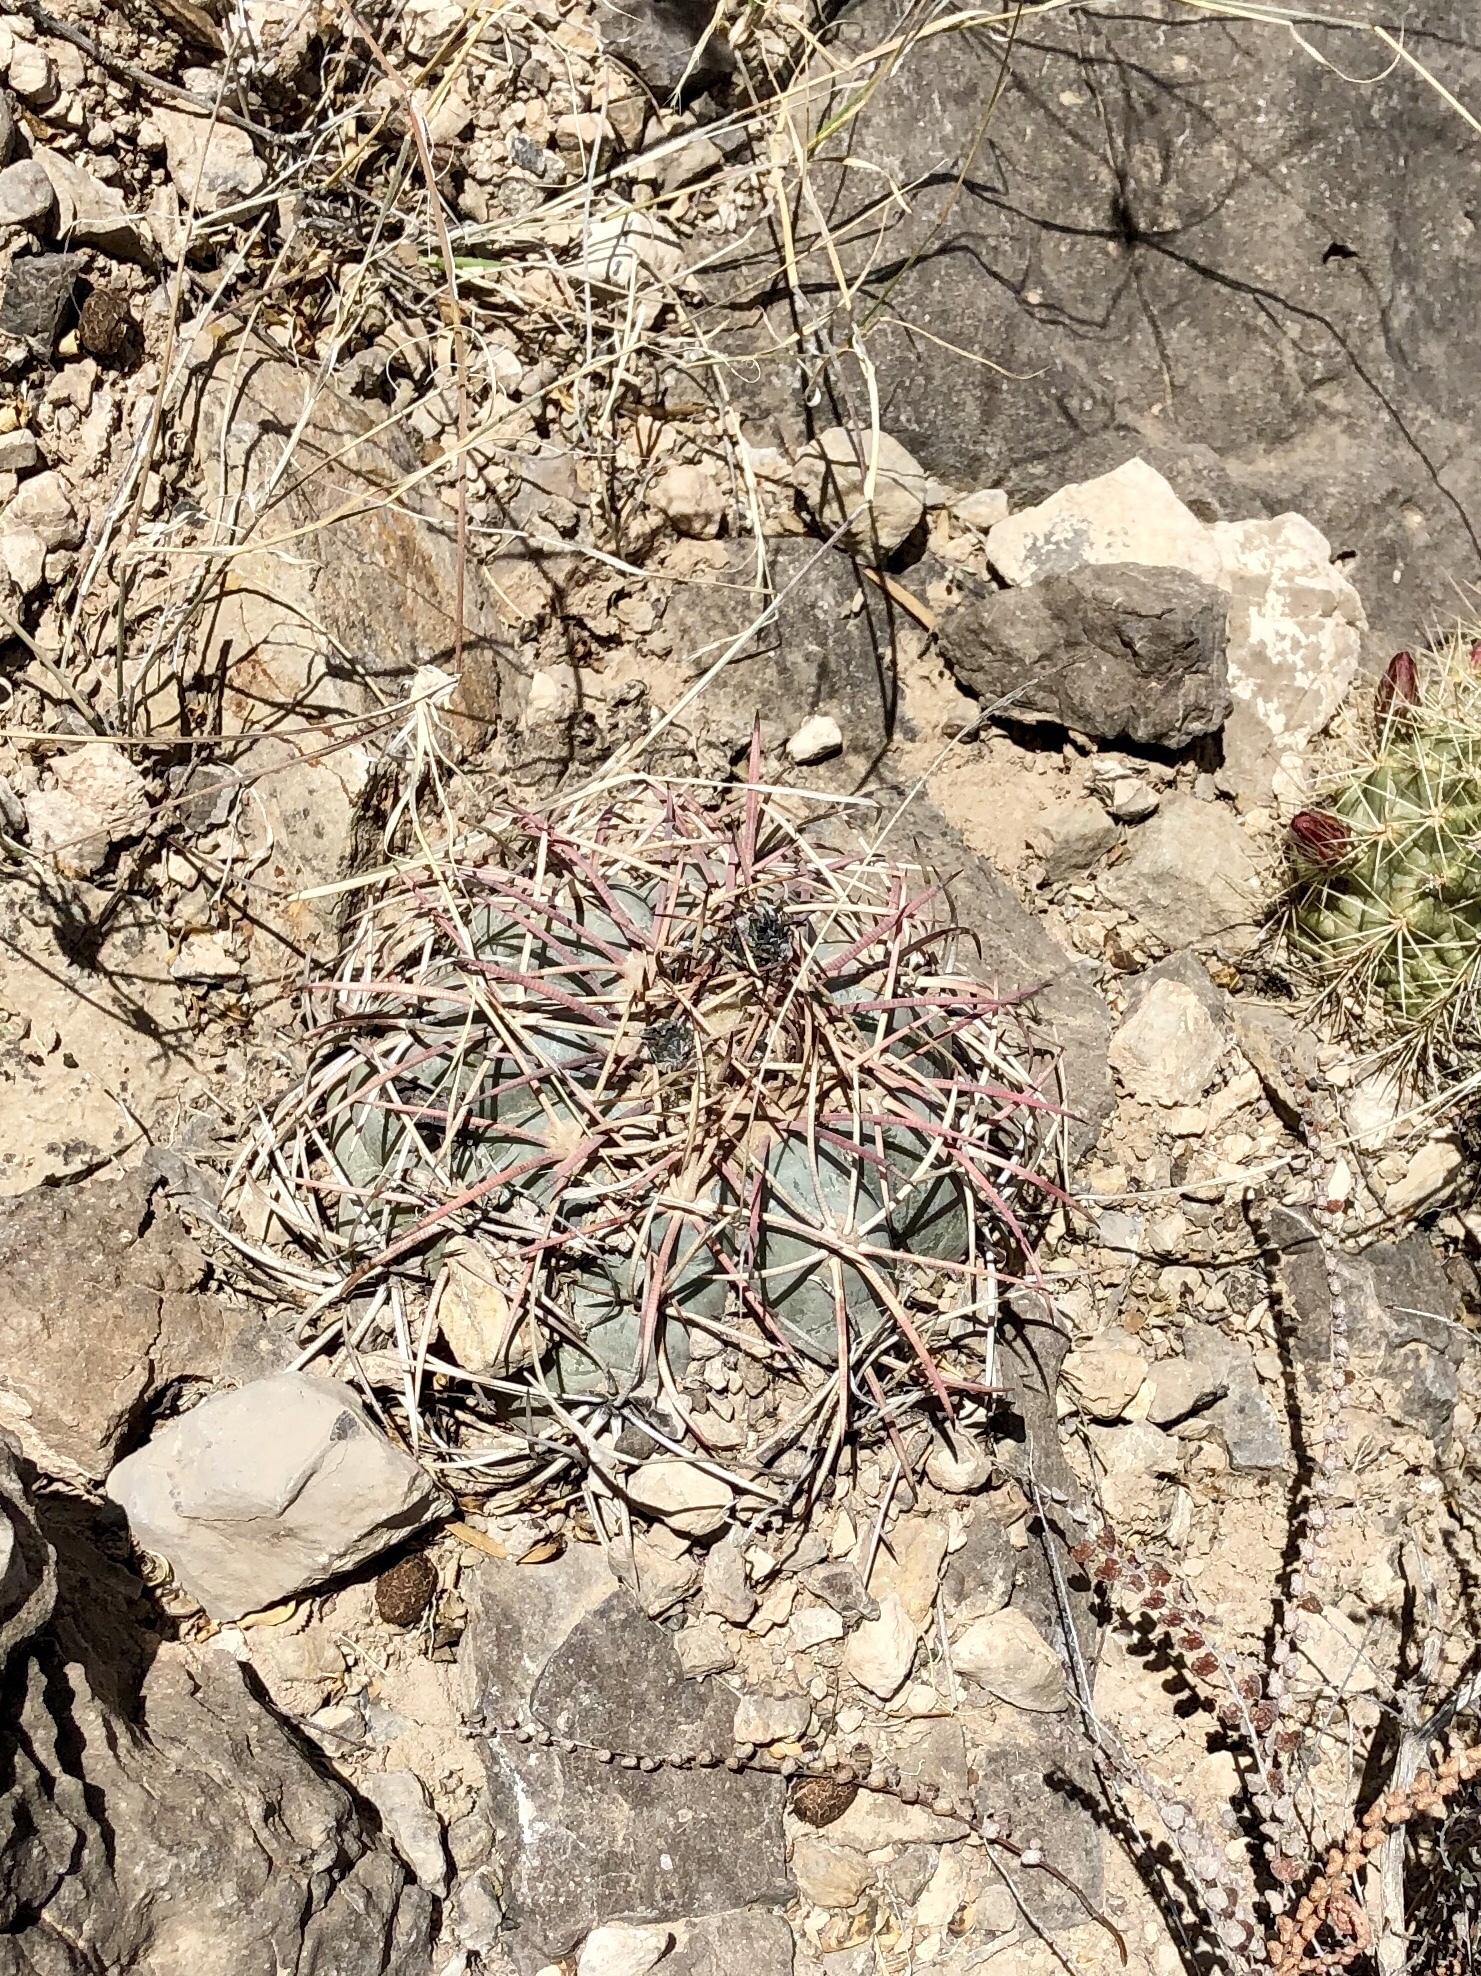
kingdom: Plantae
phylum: Tracheophyta
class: Magnoliopsida
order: Caryophyllales
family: Cactaceae
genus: Echinocactus
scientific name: Echinocactus horizonthalonius
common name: Devilshead
